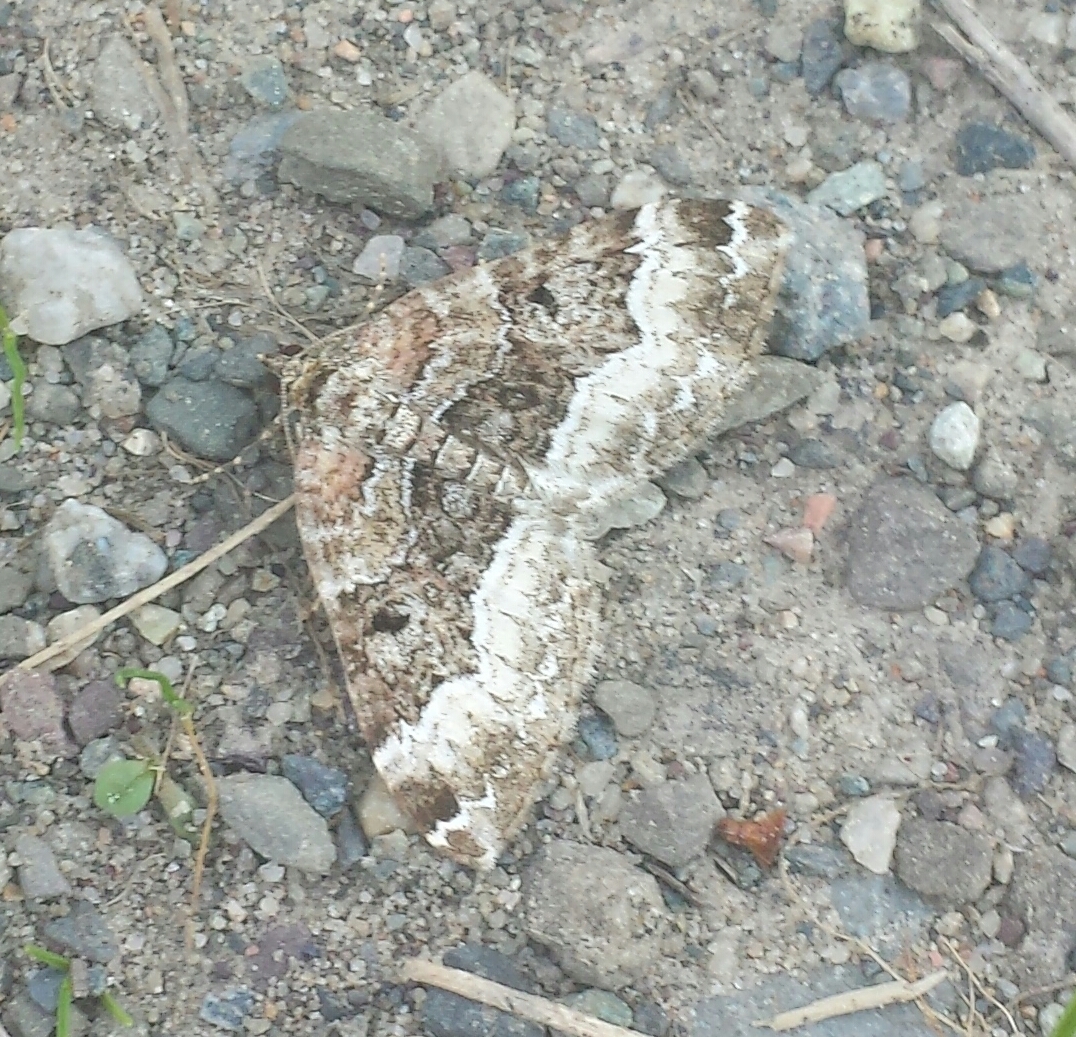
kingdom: Animalia
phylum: Arthropoda
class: Insecta
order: Lepidoptera
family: Geometridae
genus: Euphyia
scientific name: Euphyia intermediata
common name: Sharp-angled carpet
